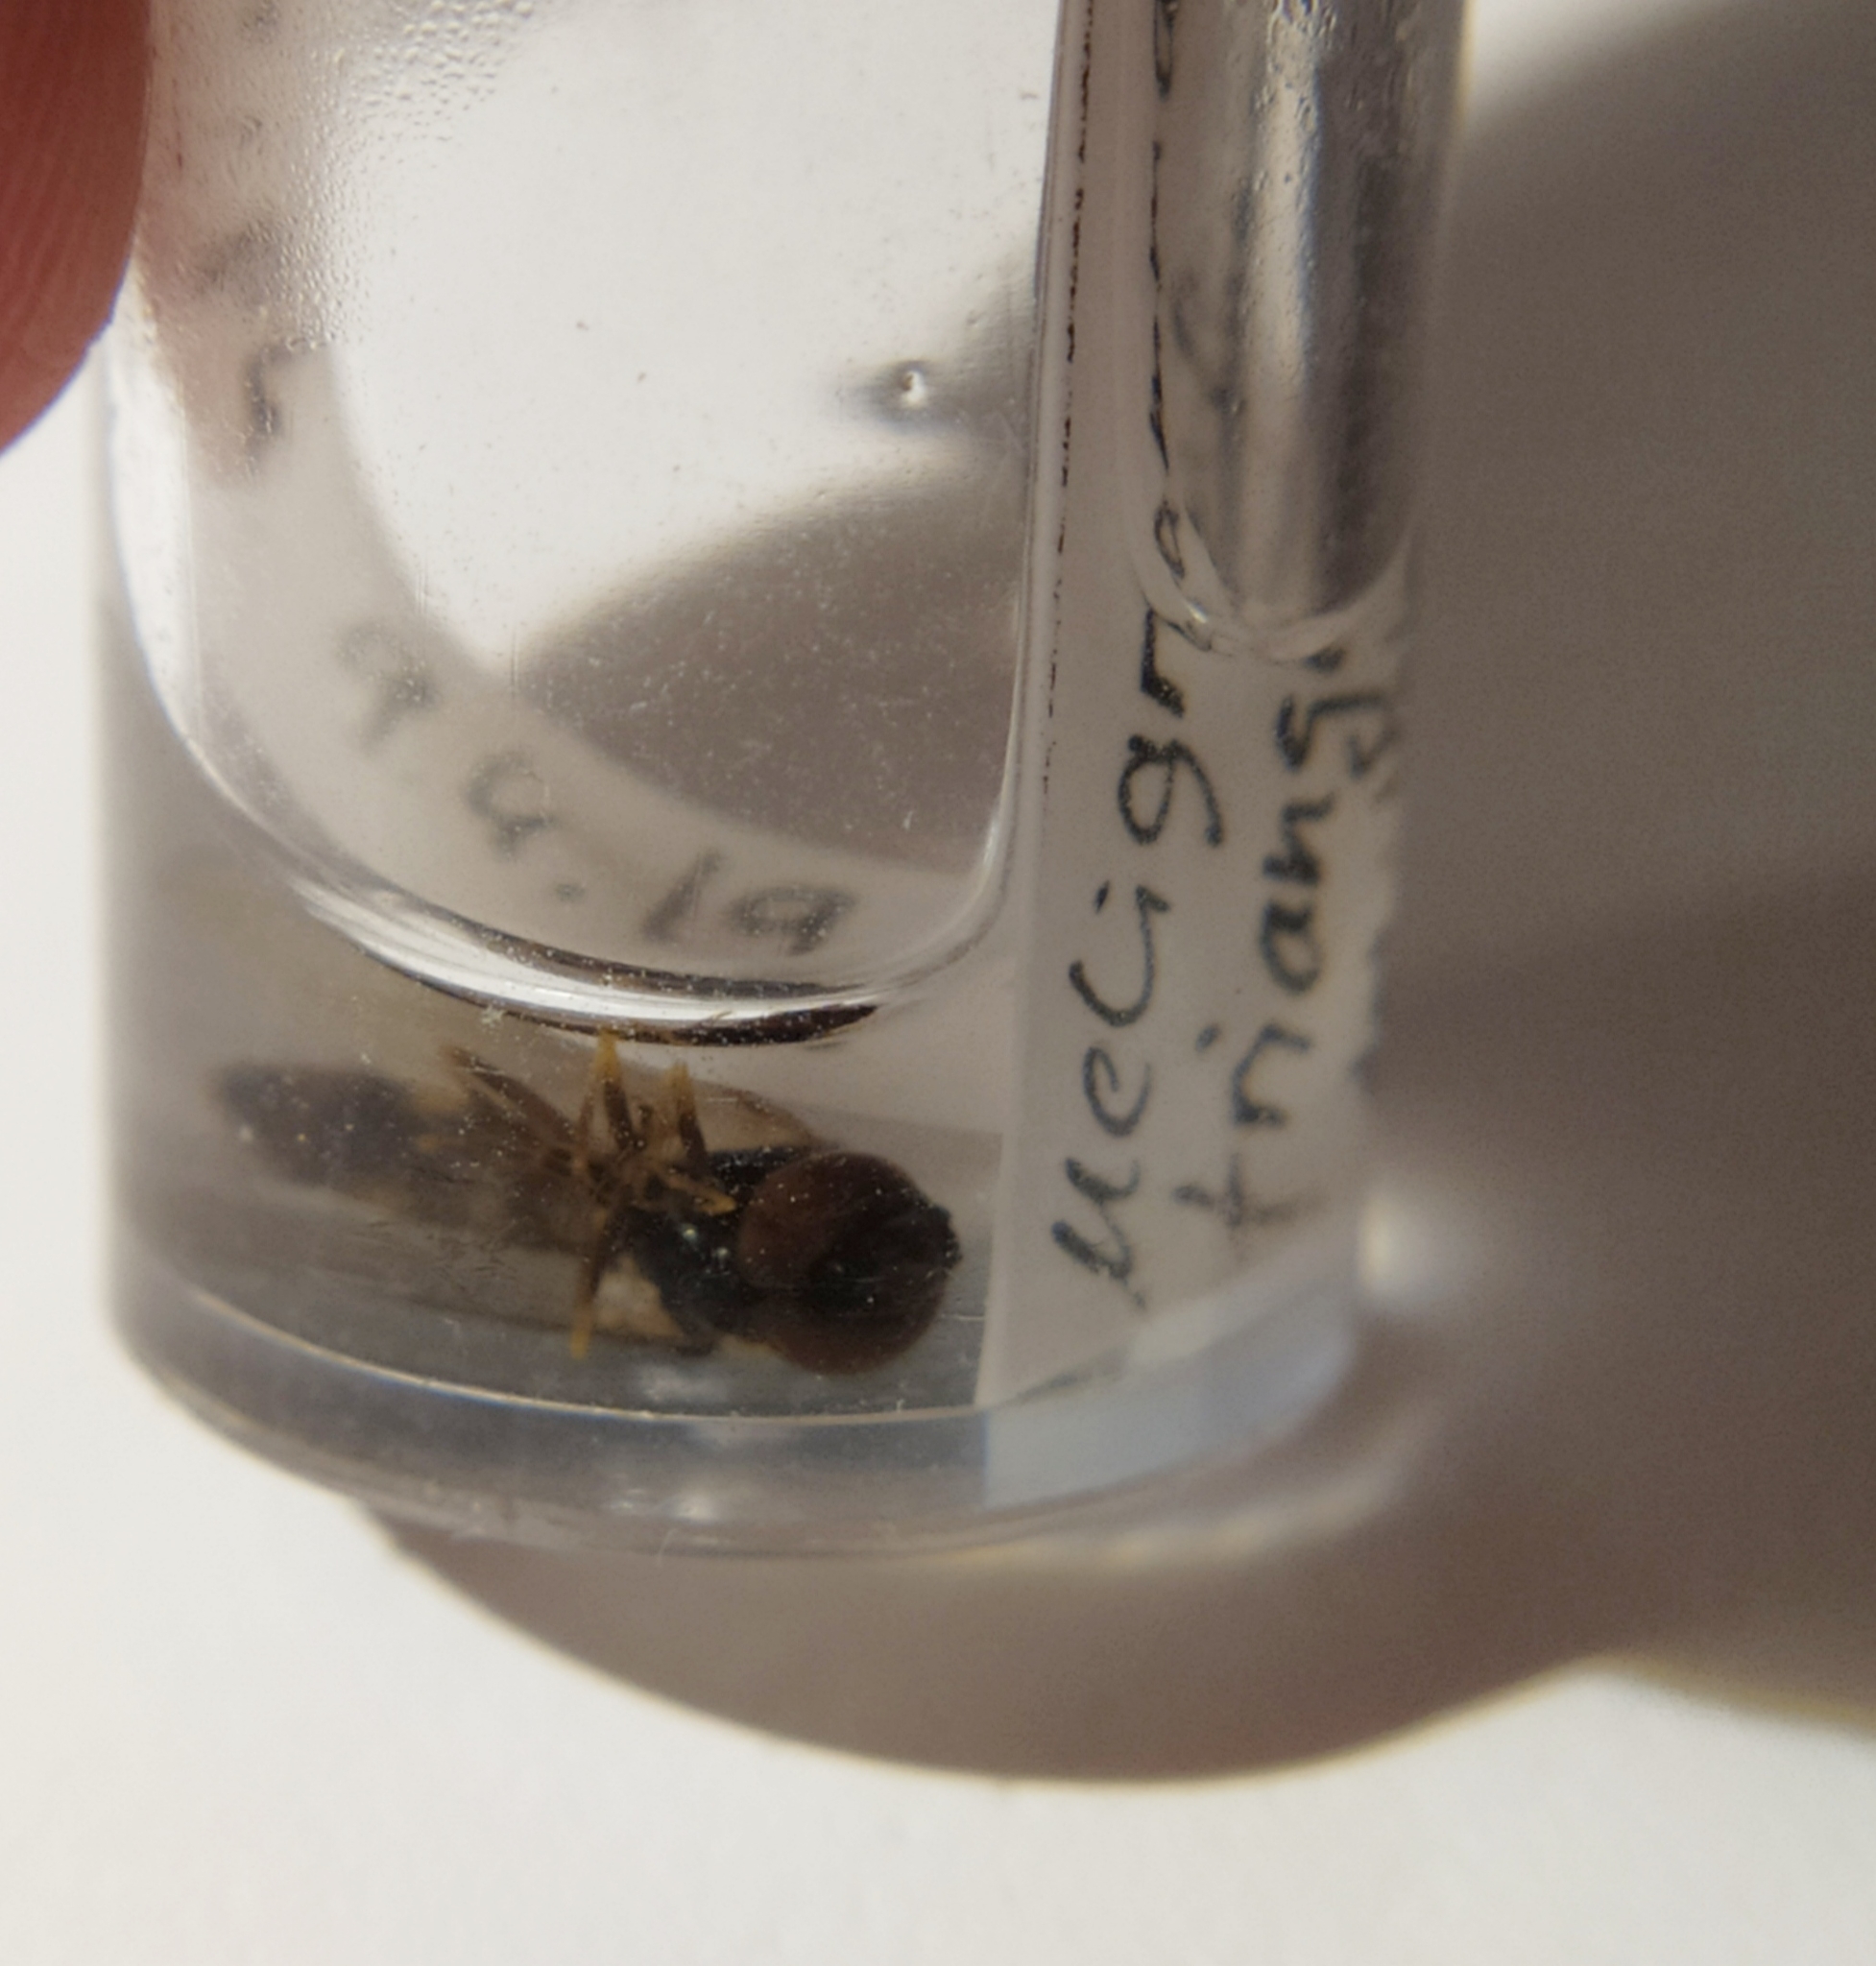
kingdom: Animalia
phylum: Arthropoda
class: Insecta
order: Diptera
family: Syrphidae
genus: Meligramma
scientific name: Meligramma triangulifera
